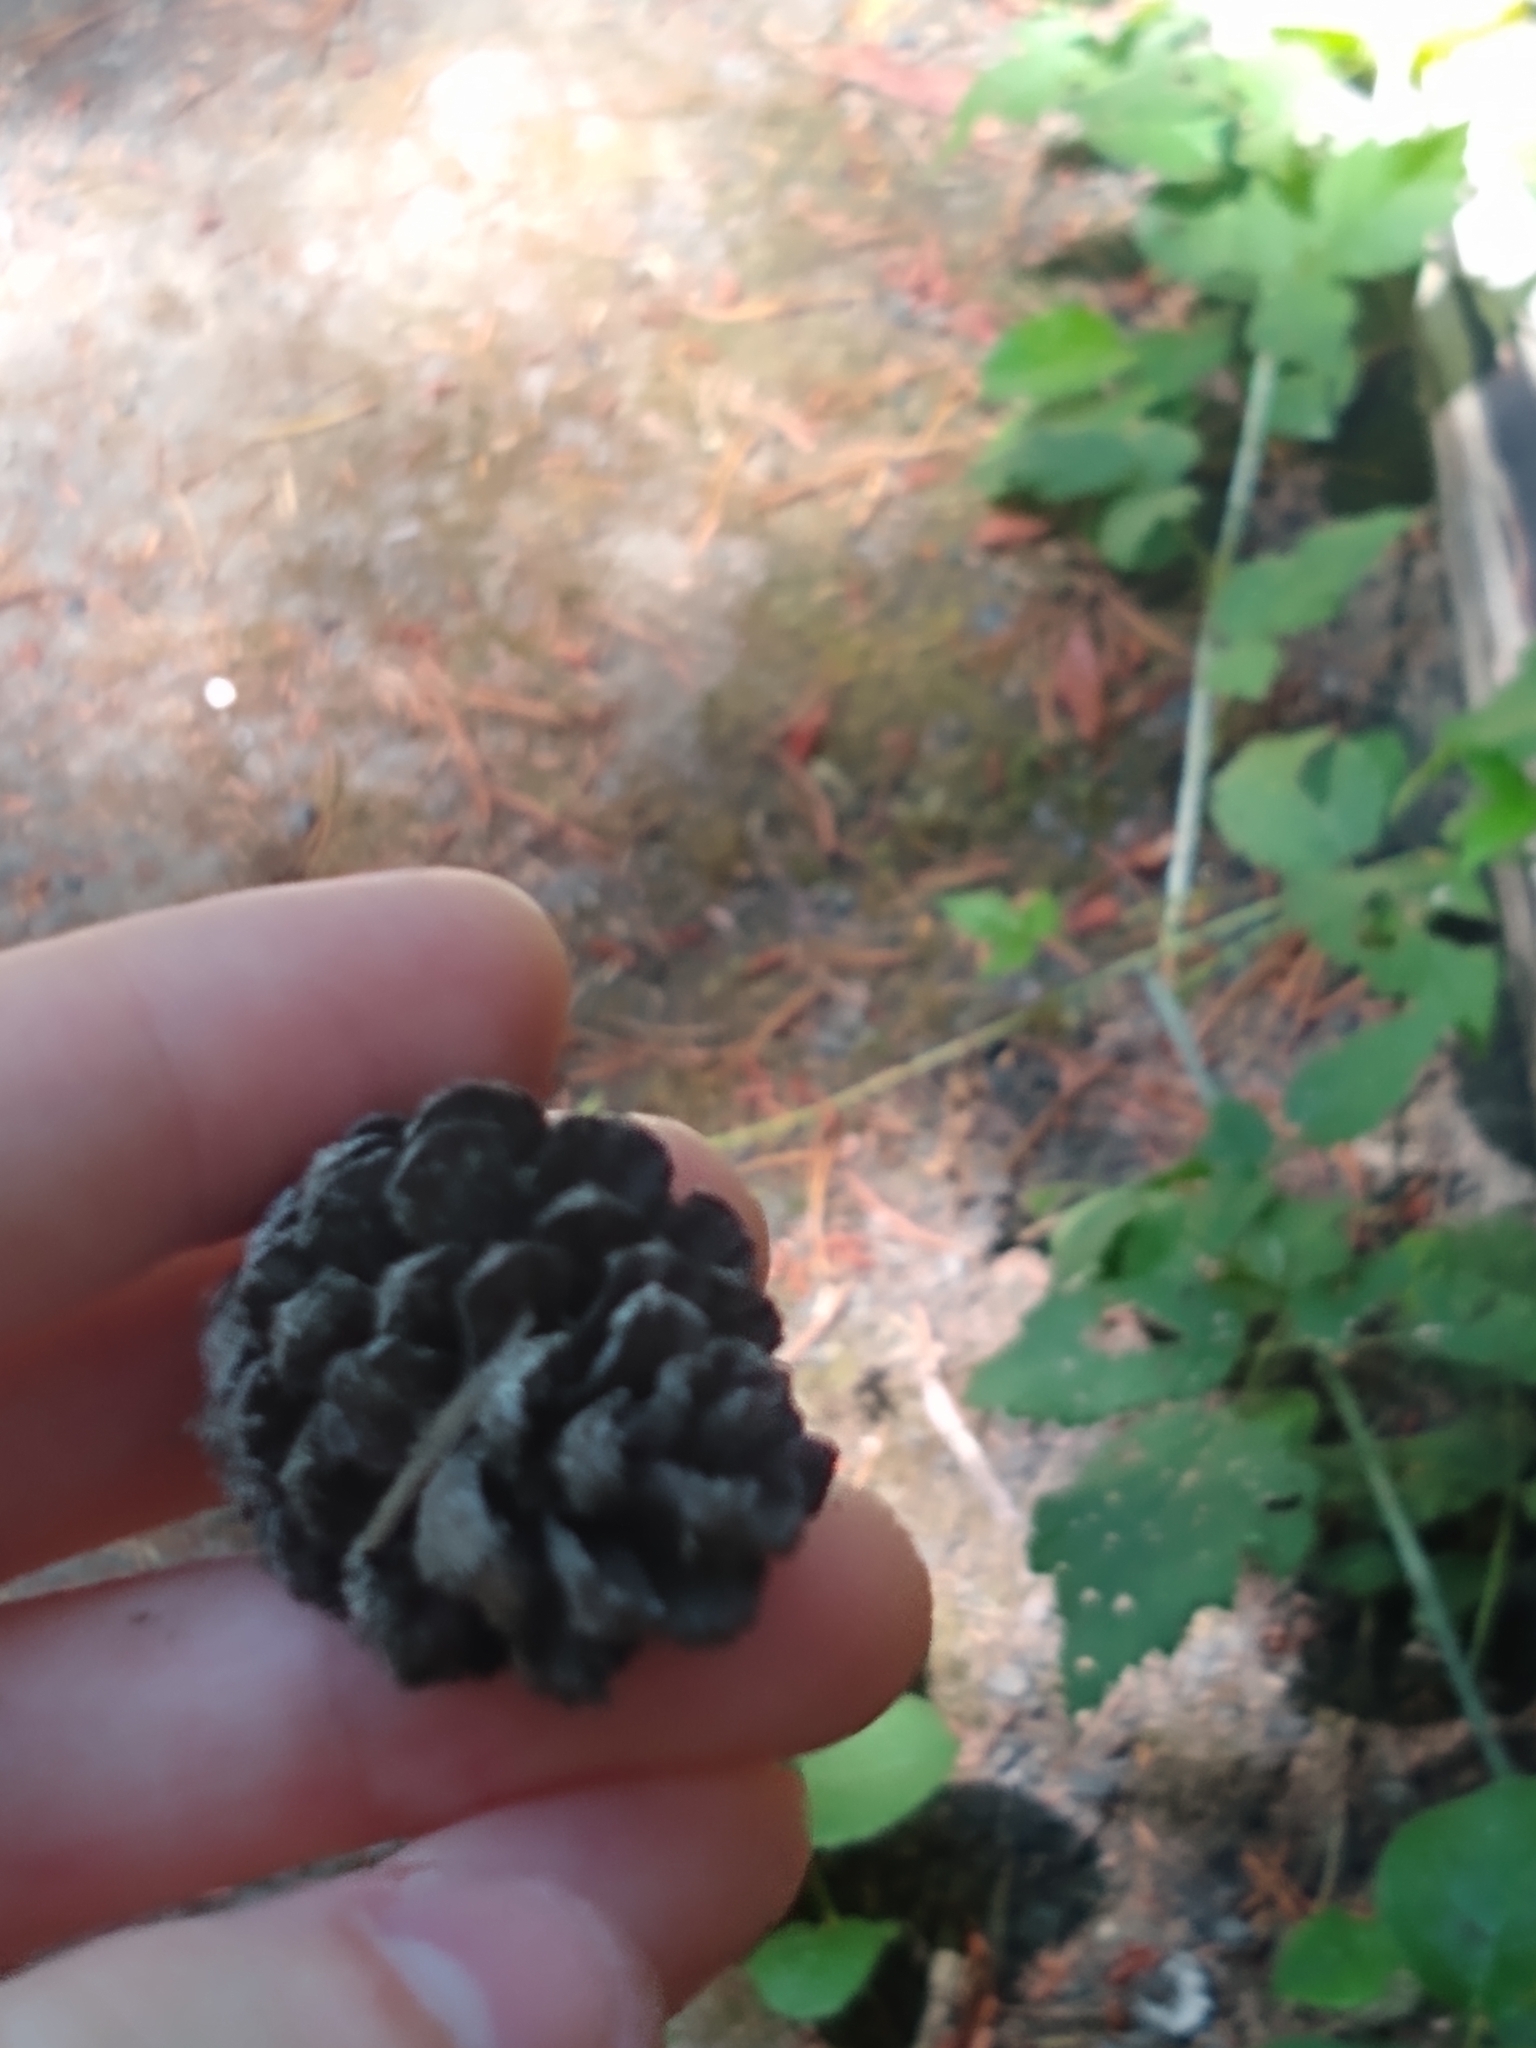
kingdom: Plantae
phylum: Tracheophyta
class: Pinopsida
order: Pinales
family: Pinaceae
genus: Pinus
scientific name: Pinus contorta
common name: Lodgepole pine
